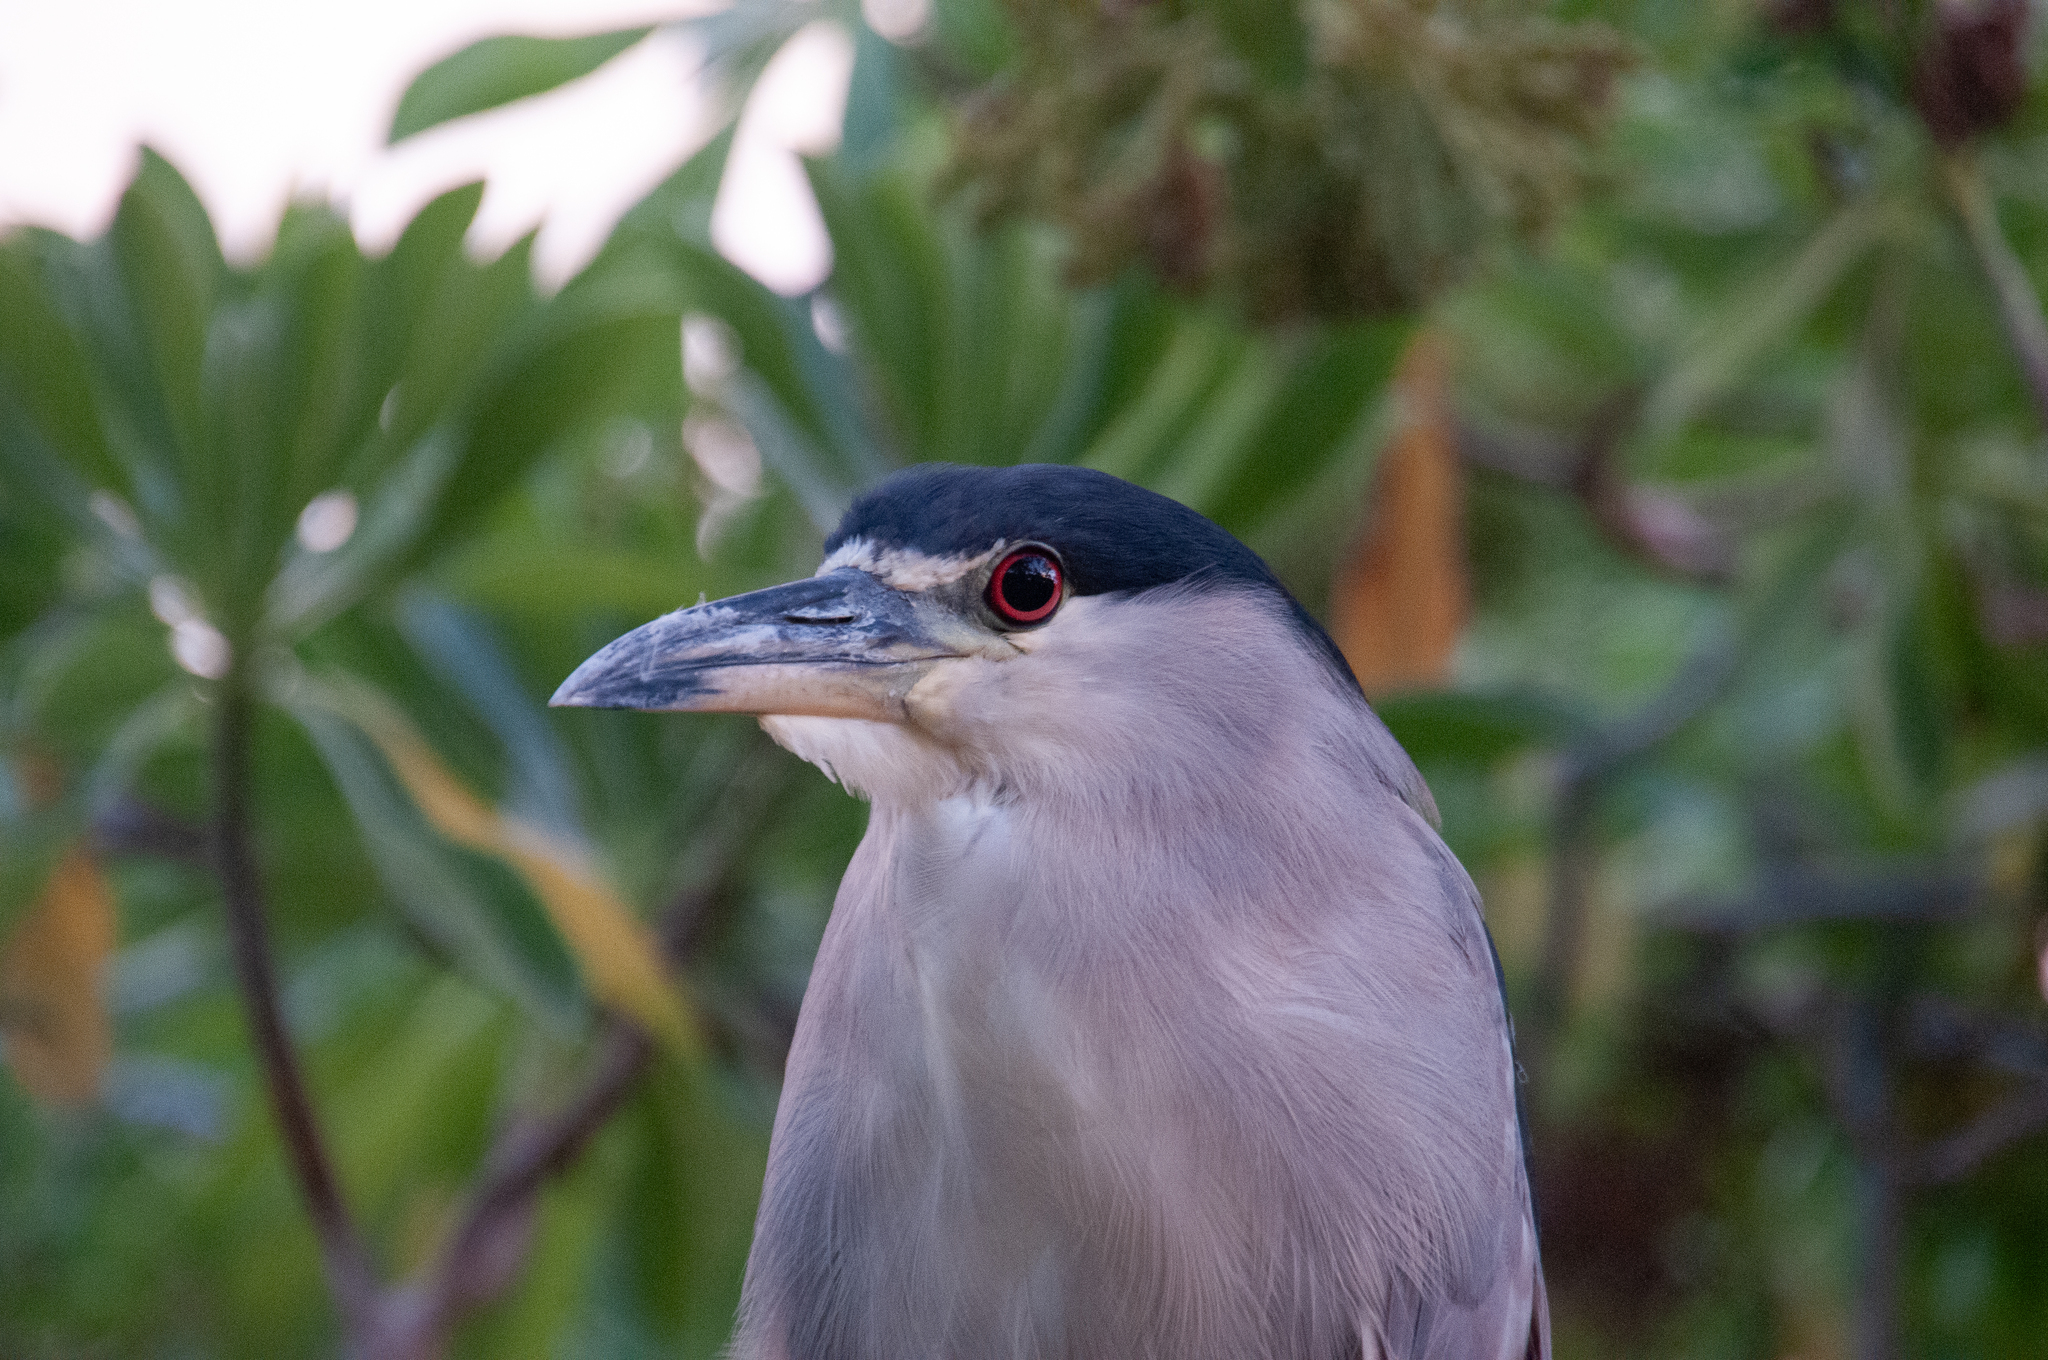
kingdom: Animalia
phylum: Chordata
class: Aves
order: Pelecaniformes
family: Ardeidae
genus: Nycticorax
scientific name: Nycticorax nycticorax
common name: Black-crowned night heron
